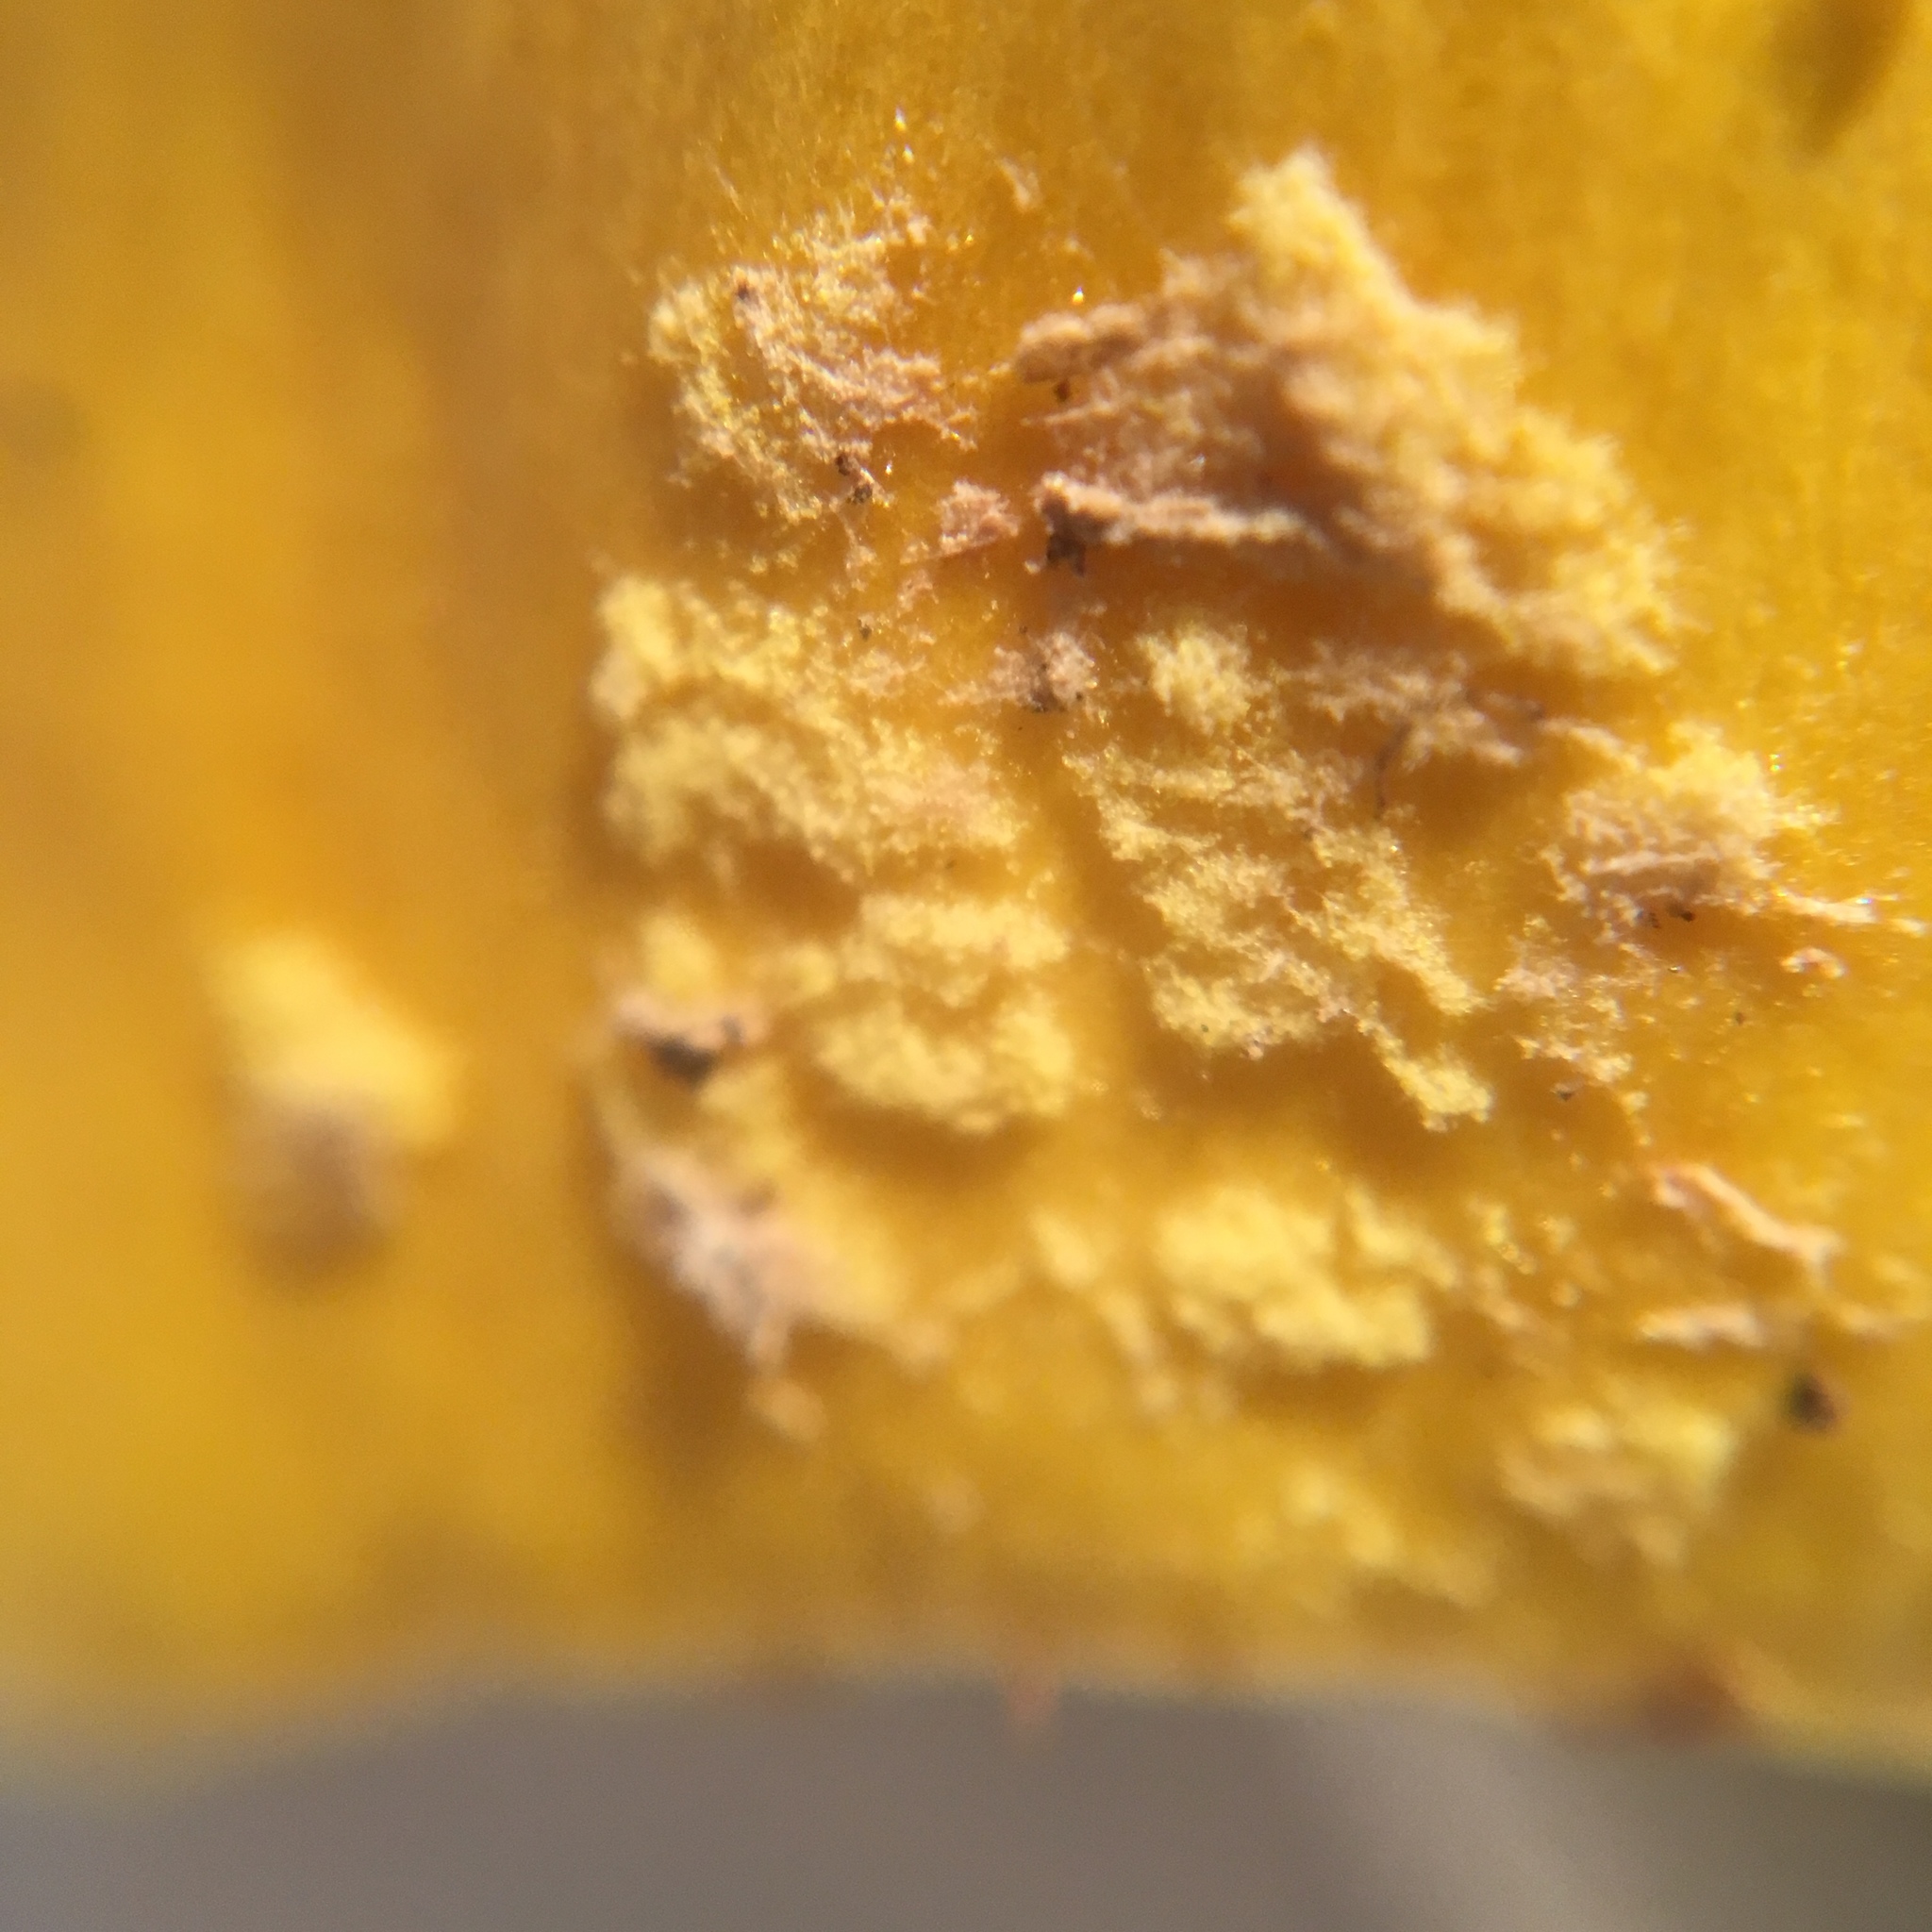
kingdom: Fungi
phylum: Basidiomycota
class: Agaricomycetes
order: Agaricales
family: Amanitaceae
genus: Amanita
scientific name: Amanita flavorubens
